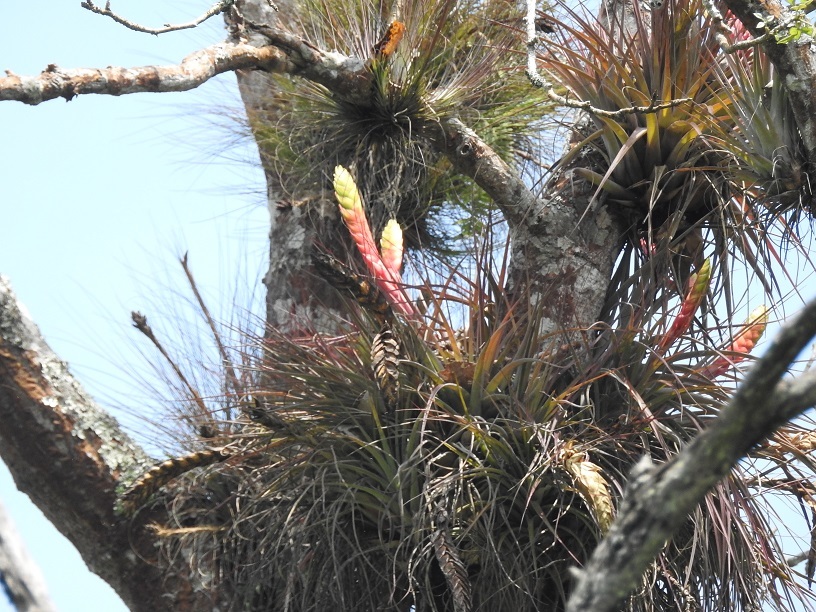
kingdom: Plantae
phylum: Tracheophyta
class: Liliopsida
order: Poales
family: Bromeliaceae
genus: Tillandsia
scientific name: Tillandsia zoquensis
